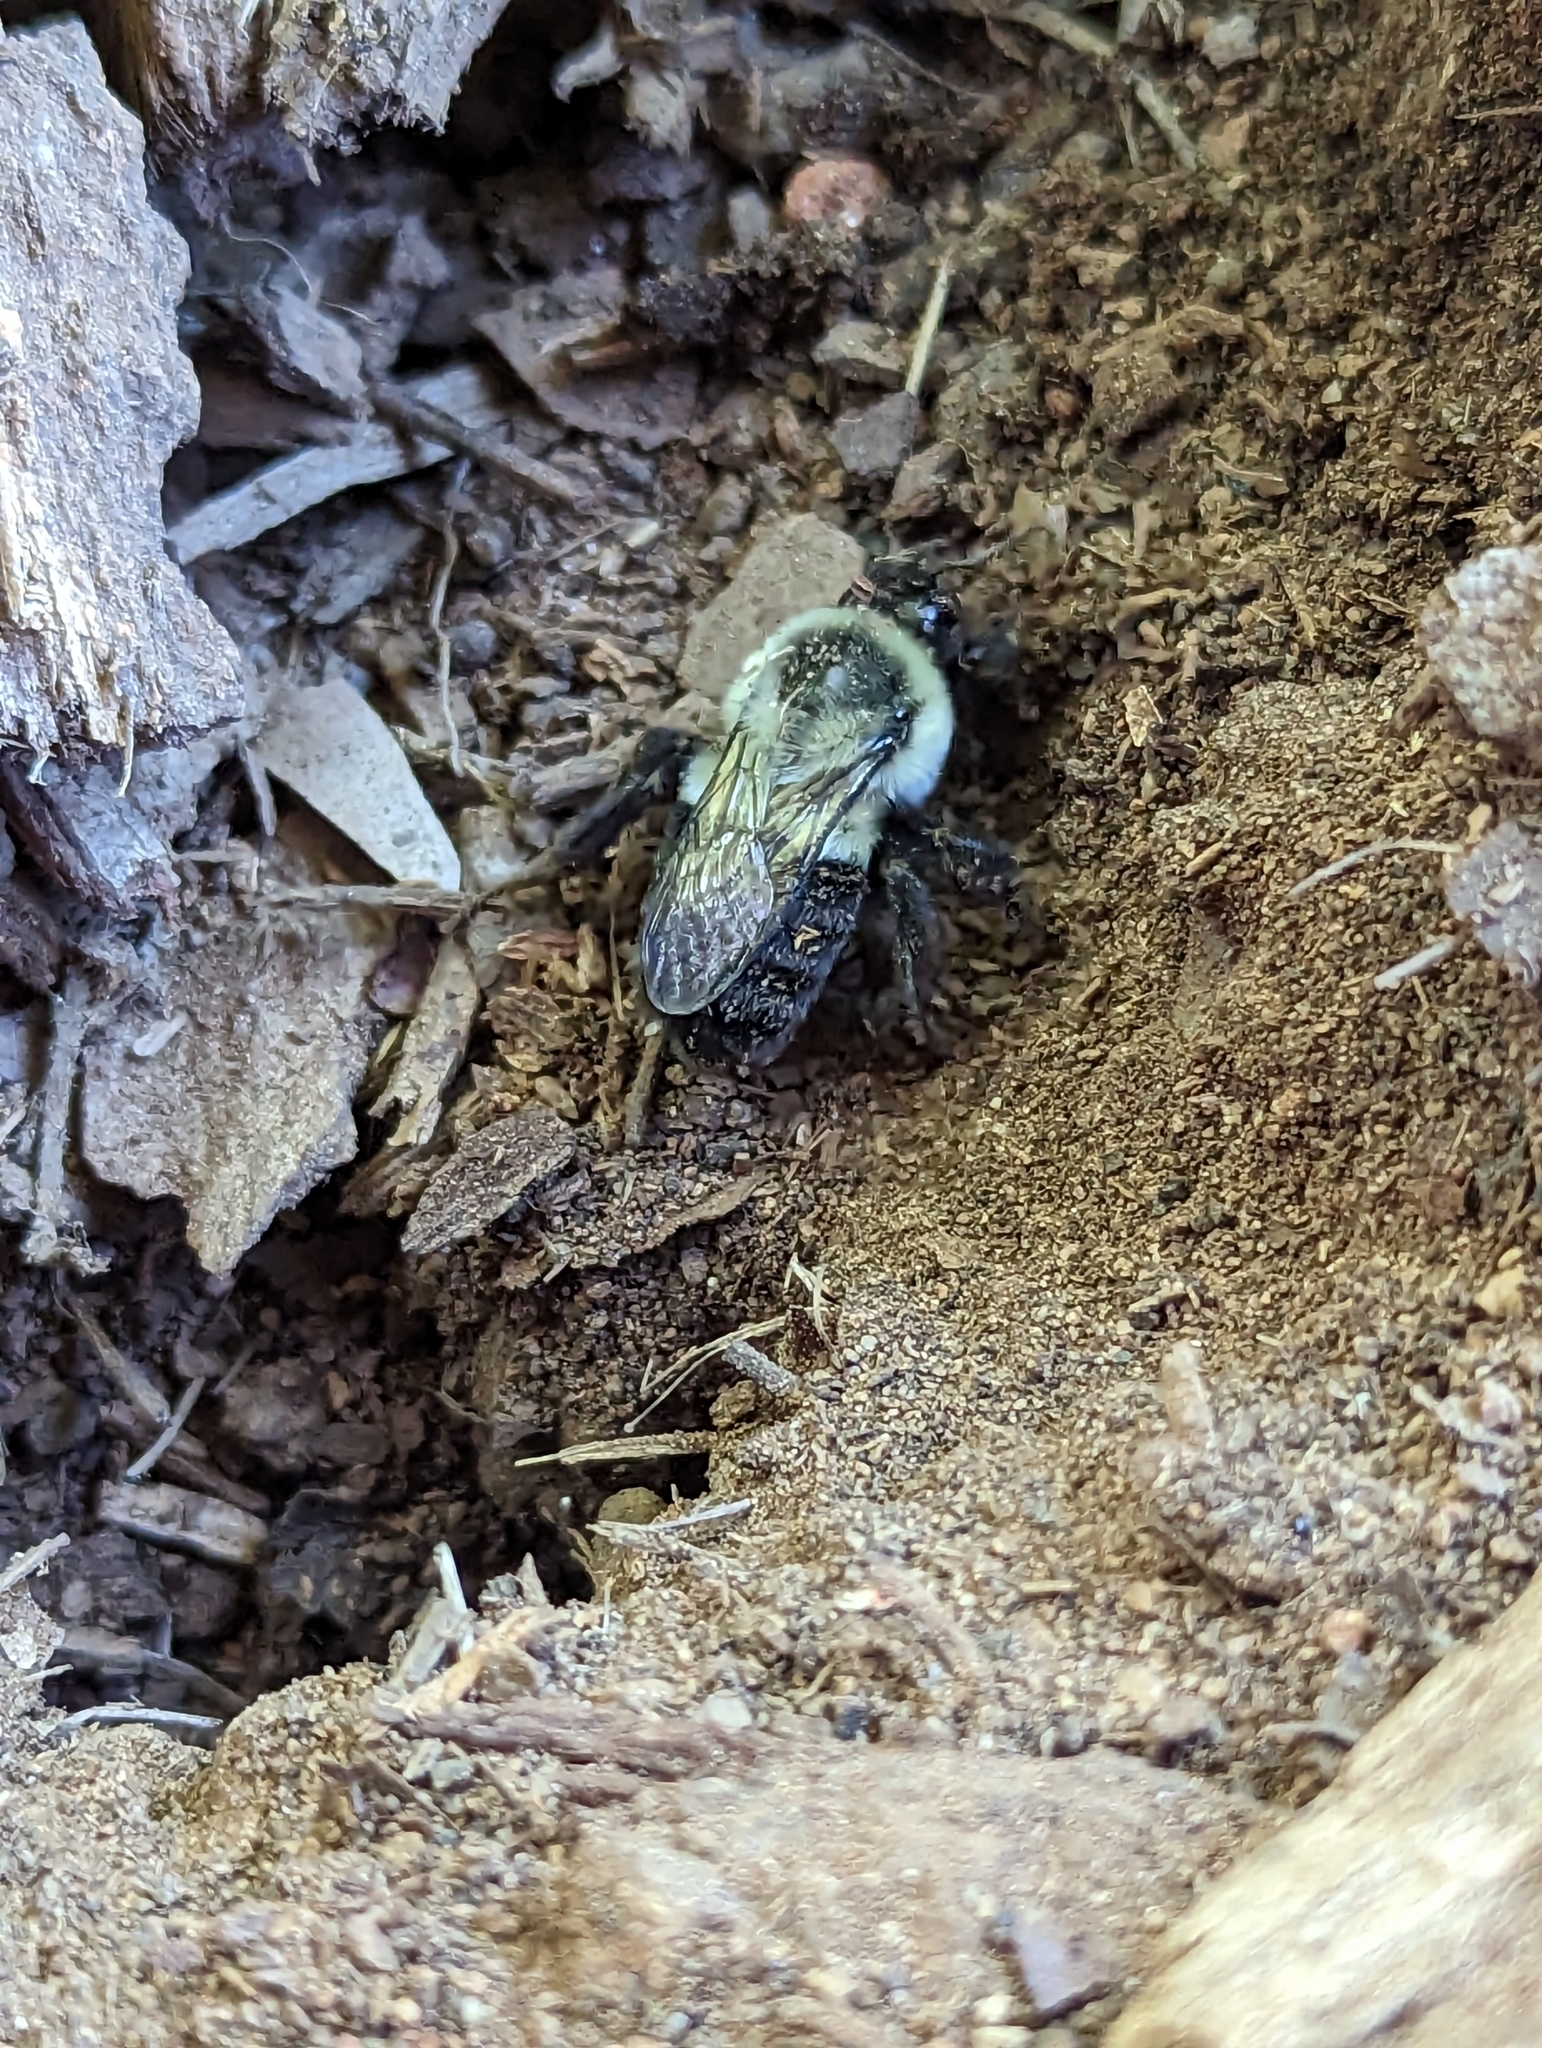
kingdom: Animalia
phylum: Arthropoda
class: Insecta
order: Hymenoptera
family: Apidae
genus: Bombus
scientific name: Bombus impatiens
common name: Common eastern bumble bee
